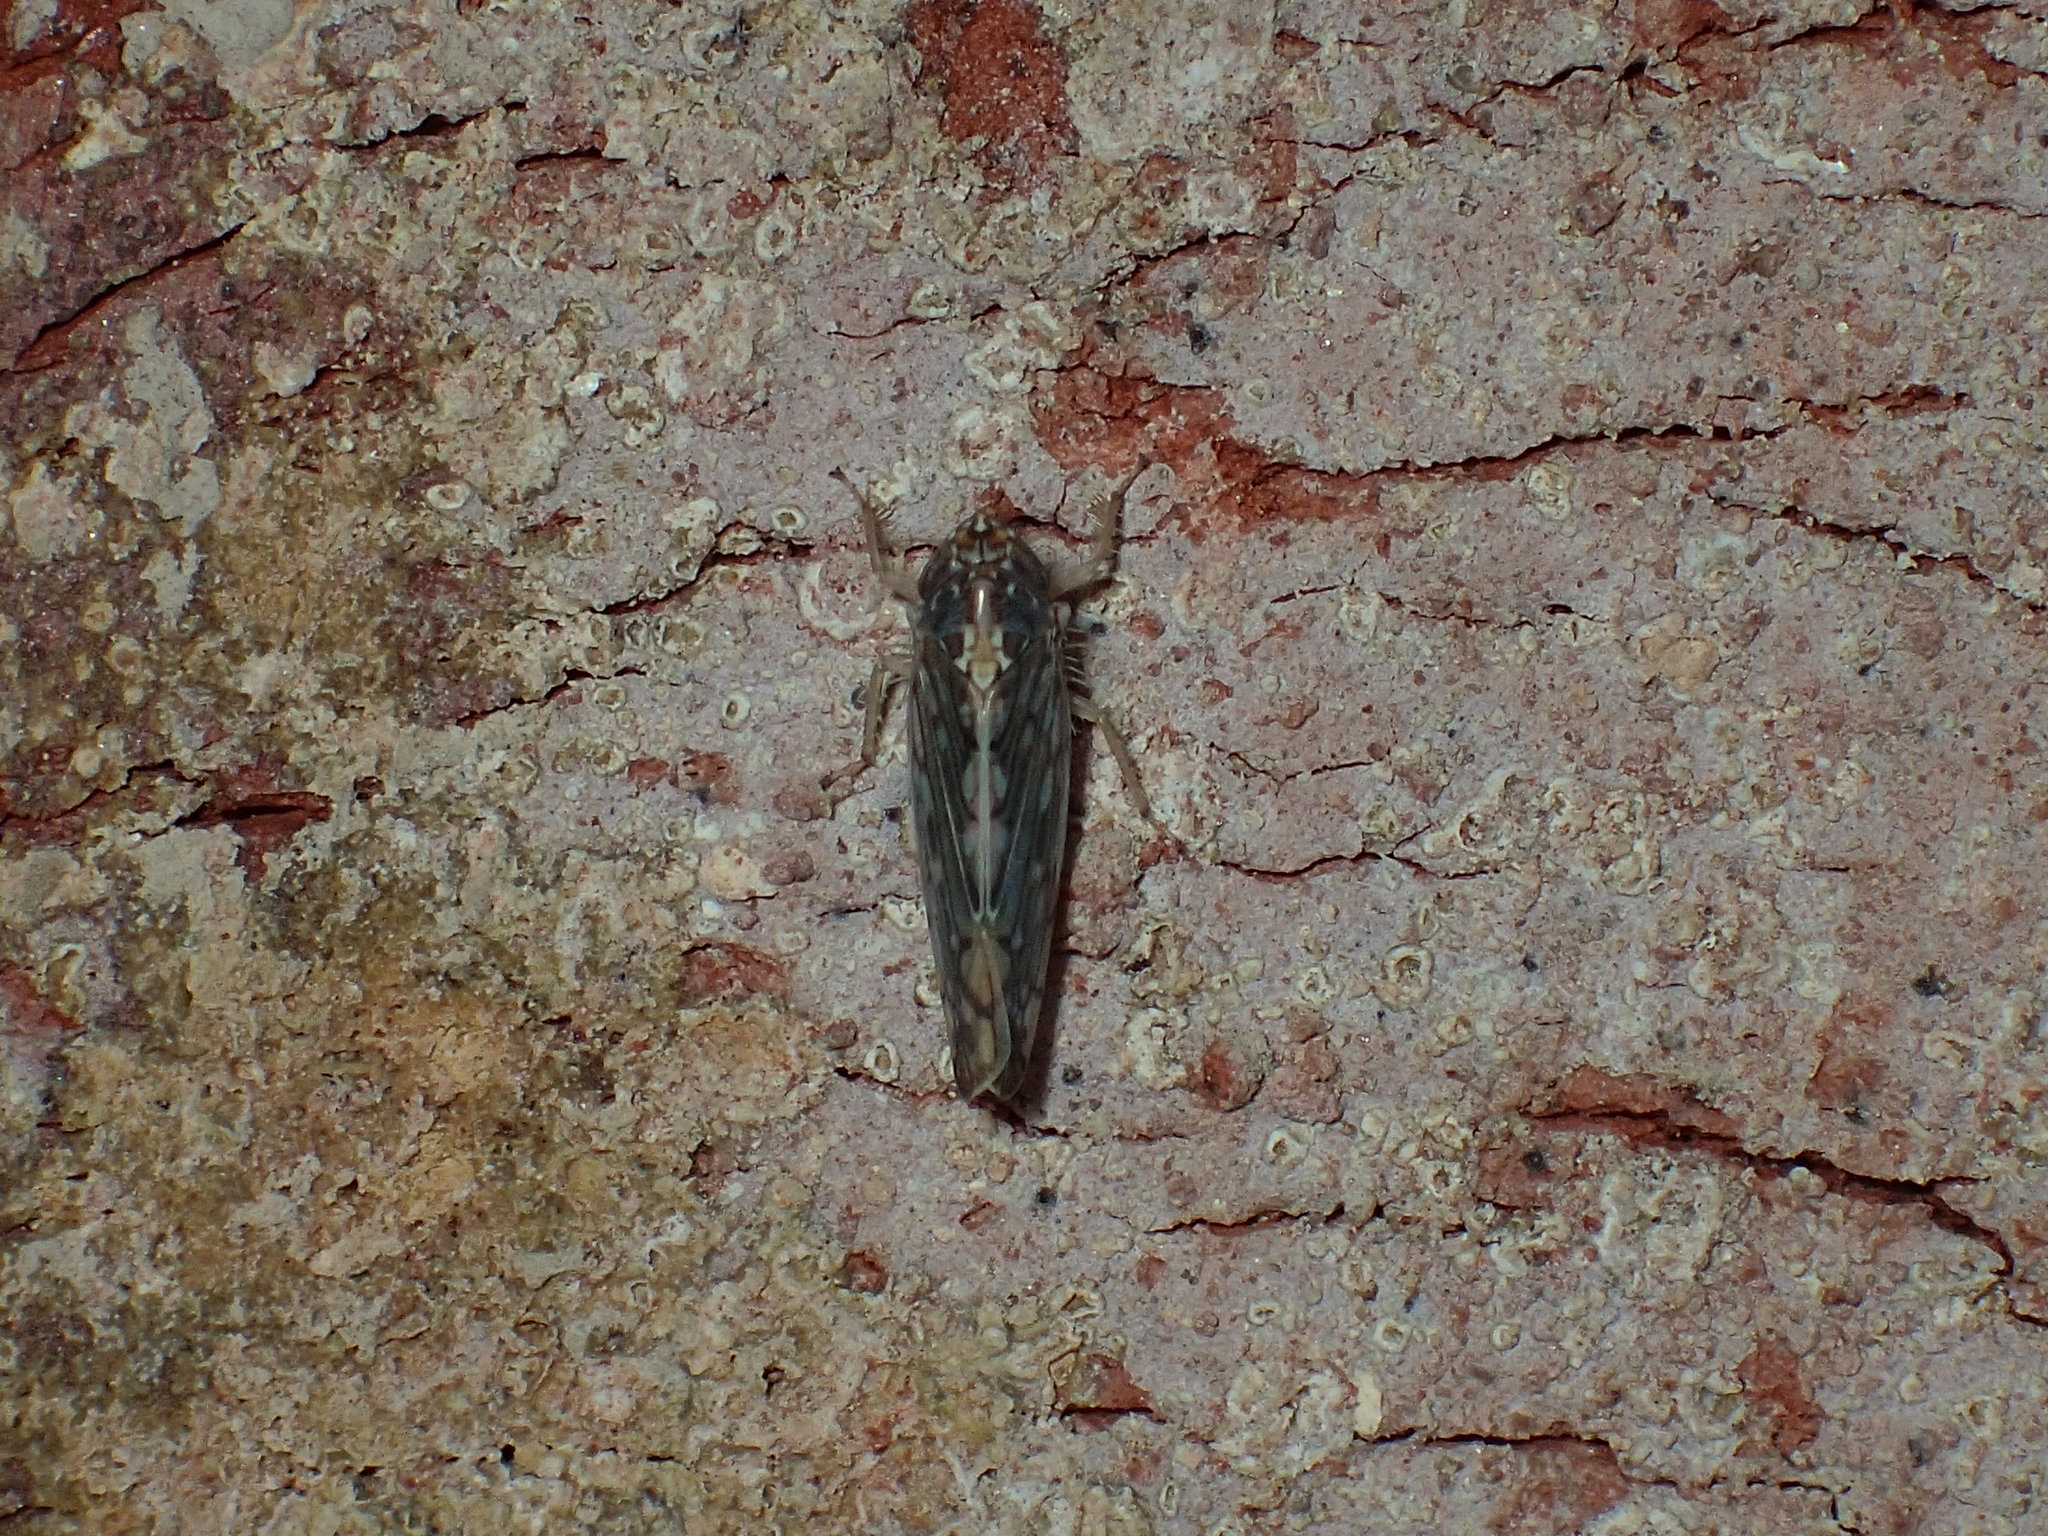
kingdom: Animalia
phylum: Arthropoda
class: Insecta
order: Hemiptera
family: Cicadellidae
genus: Osbornellus
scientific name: Osbornellus clarus
